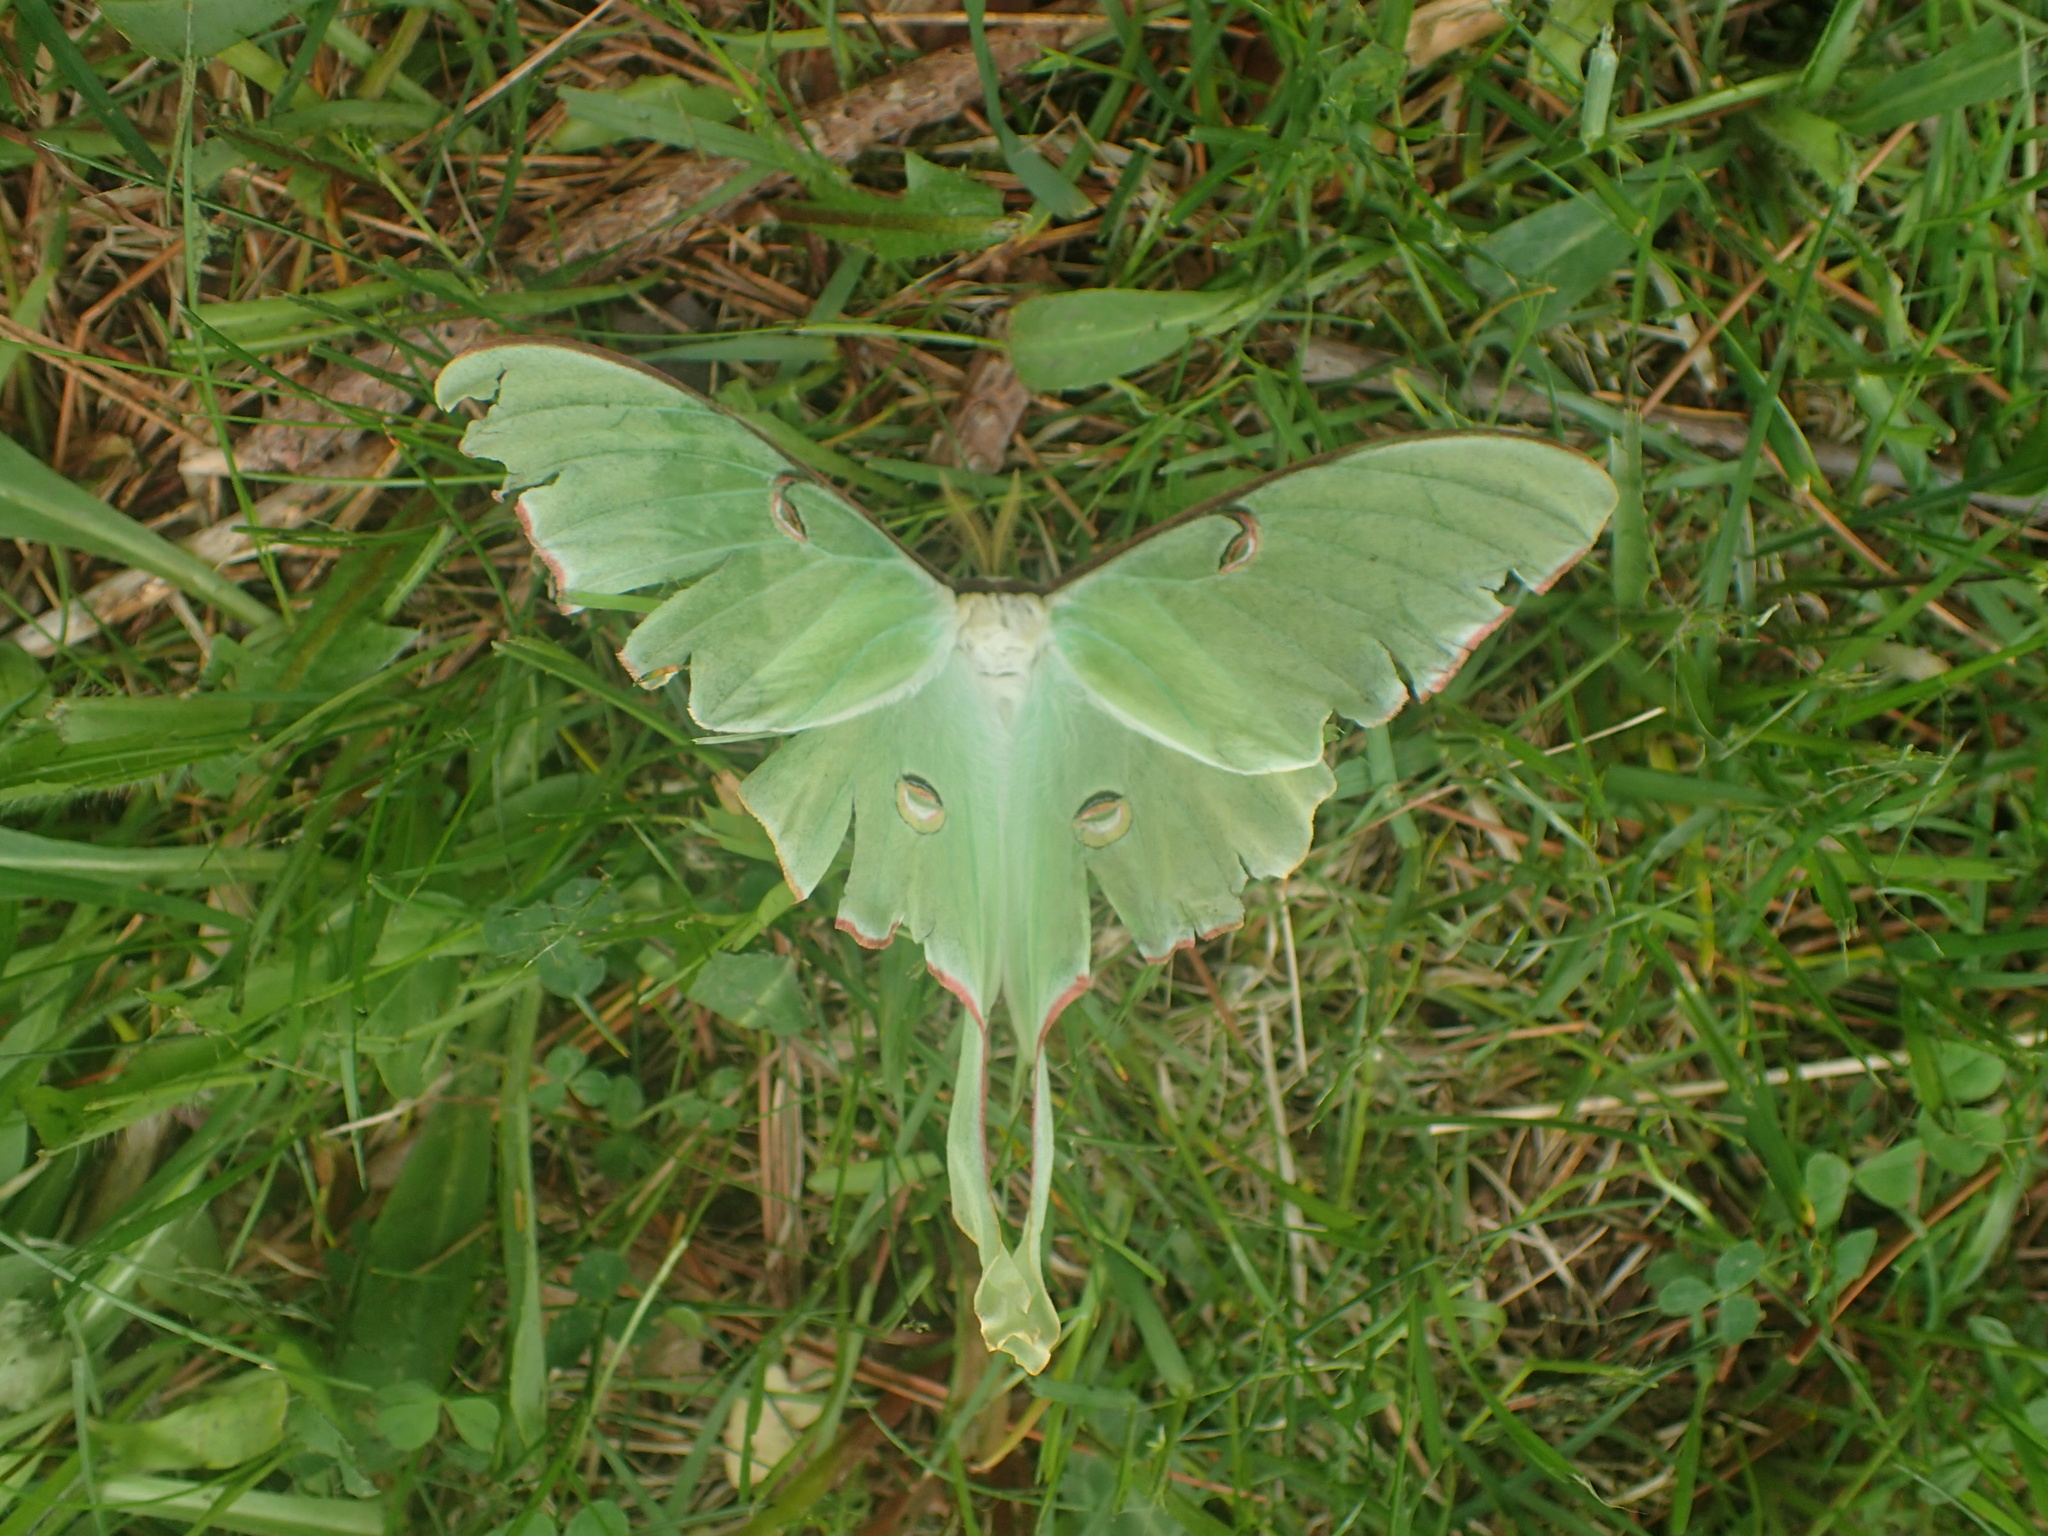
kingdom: Animalia
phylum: Arthropoda
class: Insecta
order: Lepidoptera
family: Saturniidae
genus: Actias
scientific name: Actias luna
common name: Luna moth
